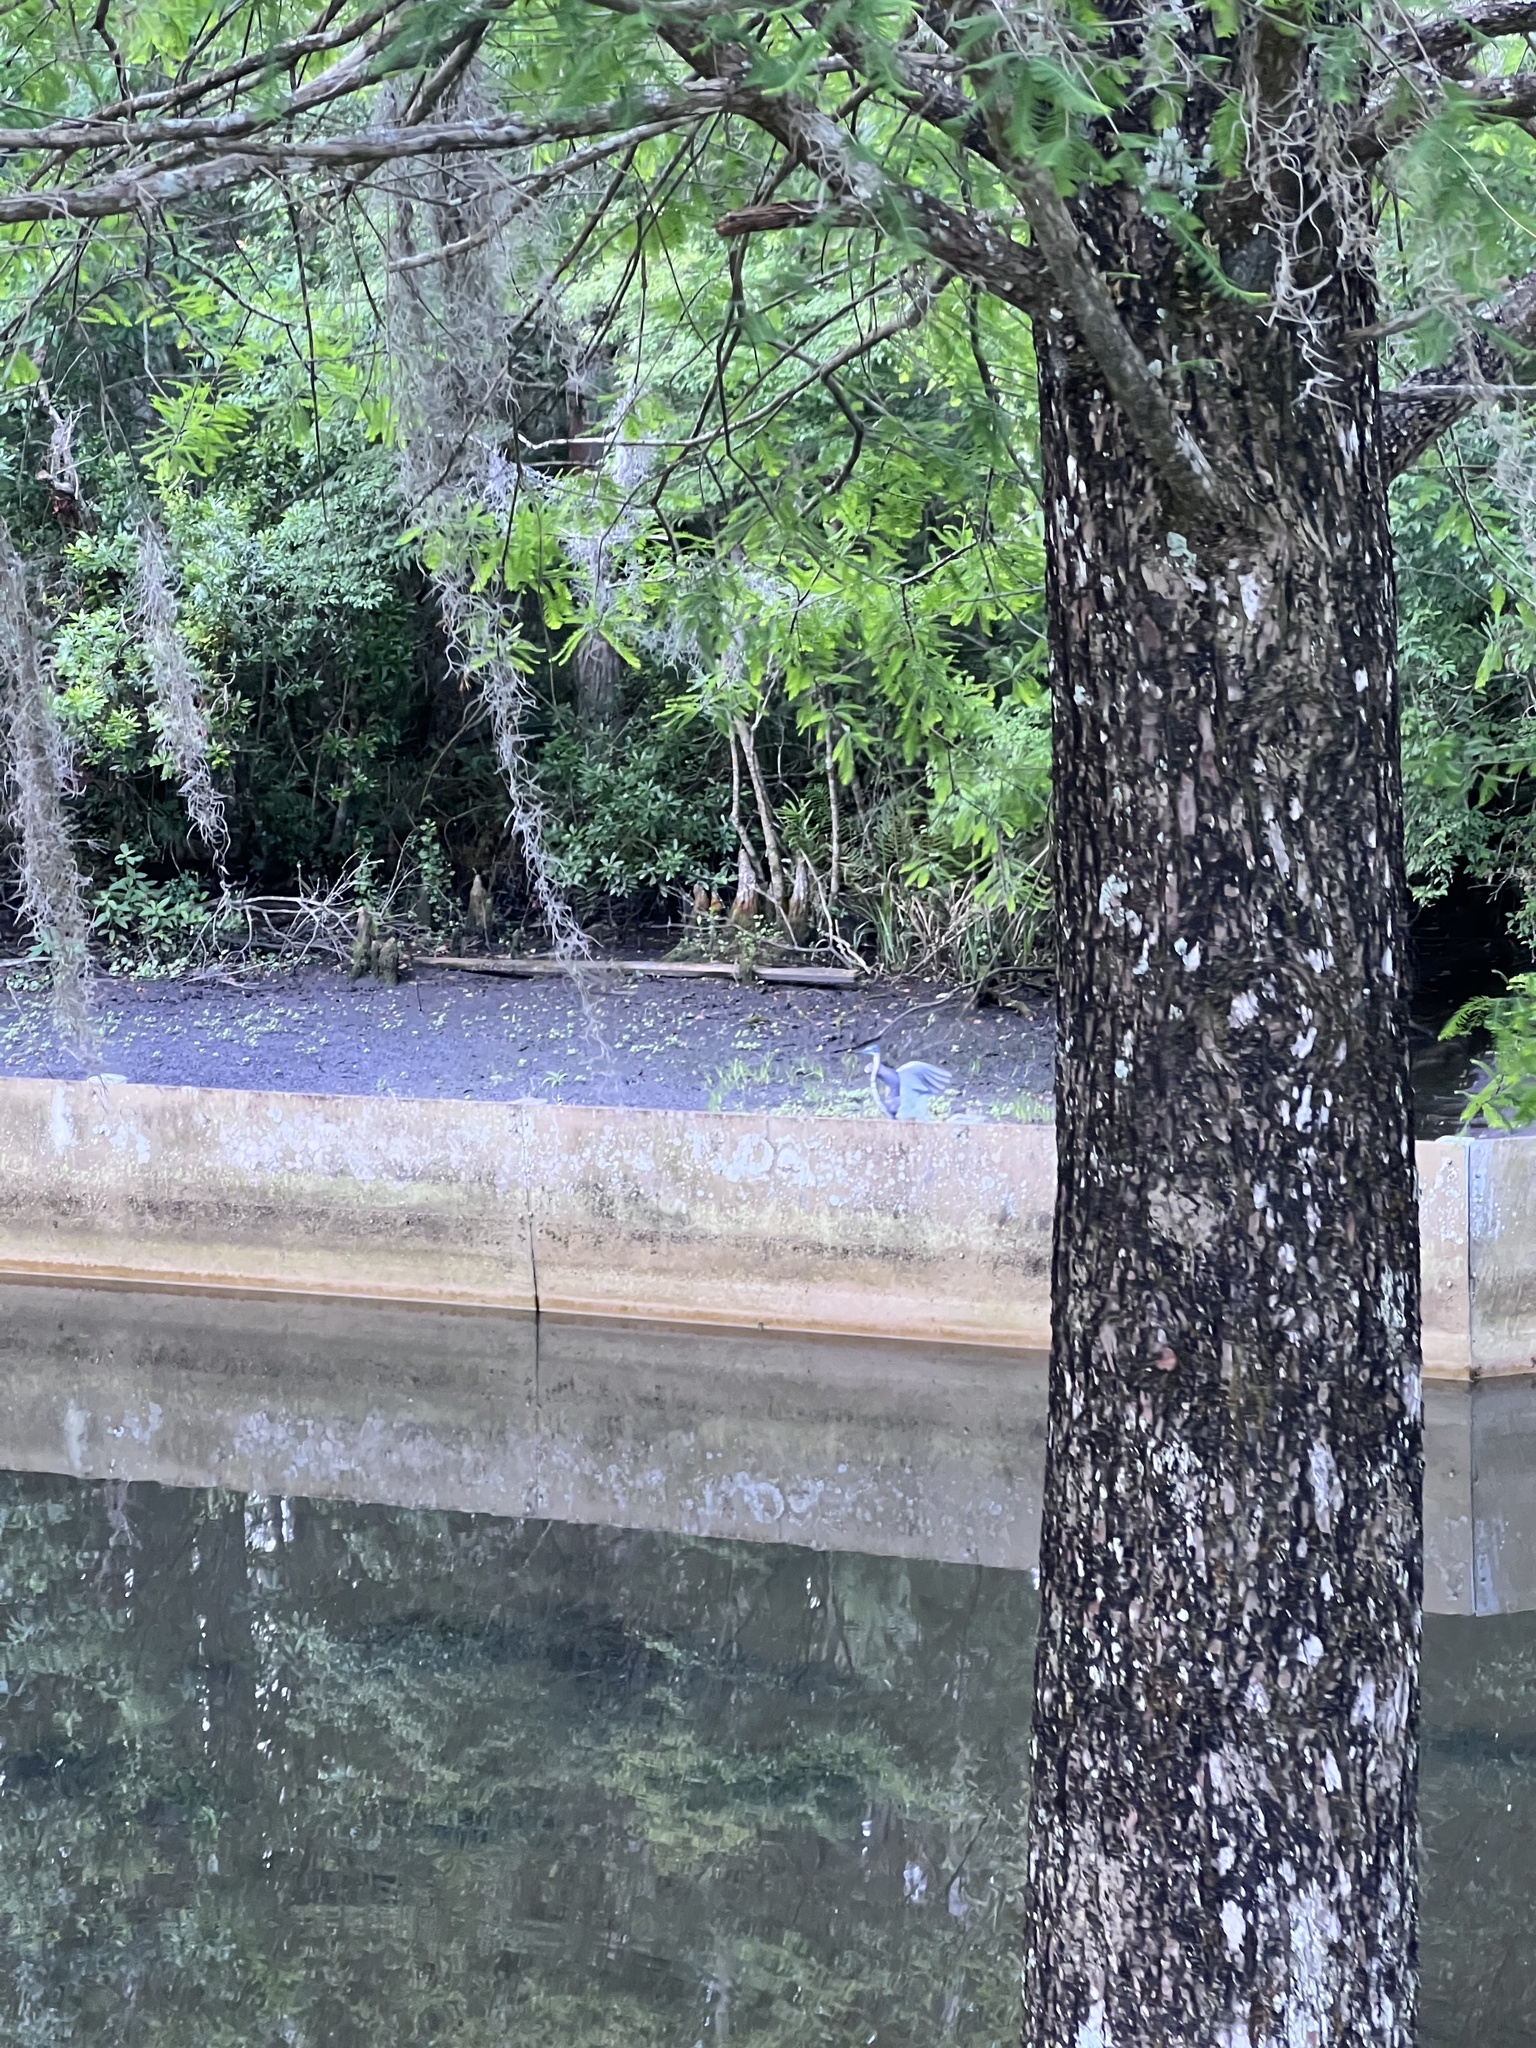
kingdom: Animalia
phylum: Chordata
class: Aves
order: Pelecaniformes
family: Ardeidae
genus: Egretta
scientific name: Egretta tricolor
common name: Tricolored heron
